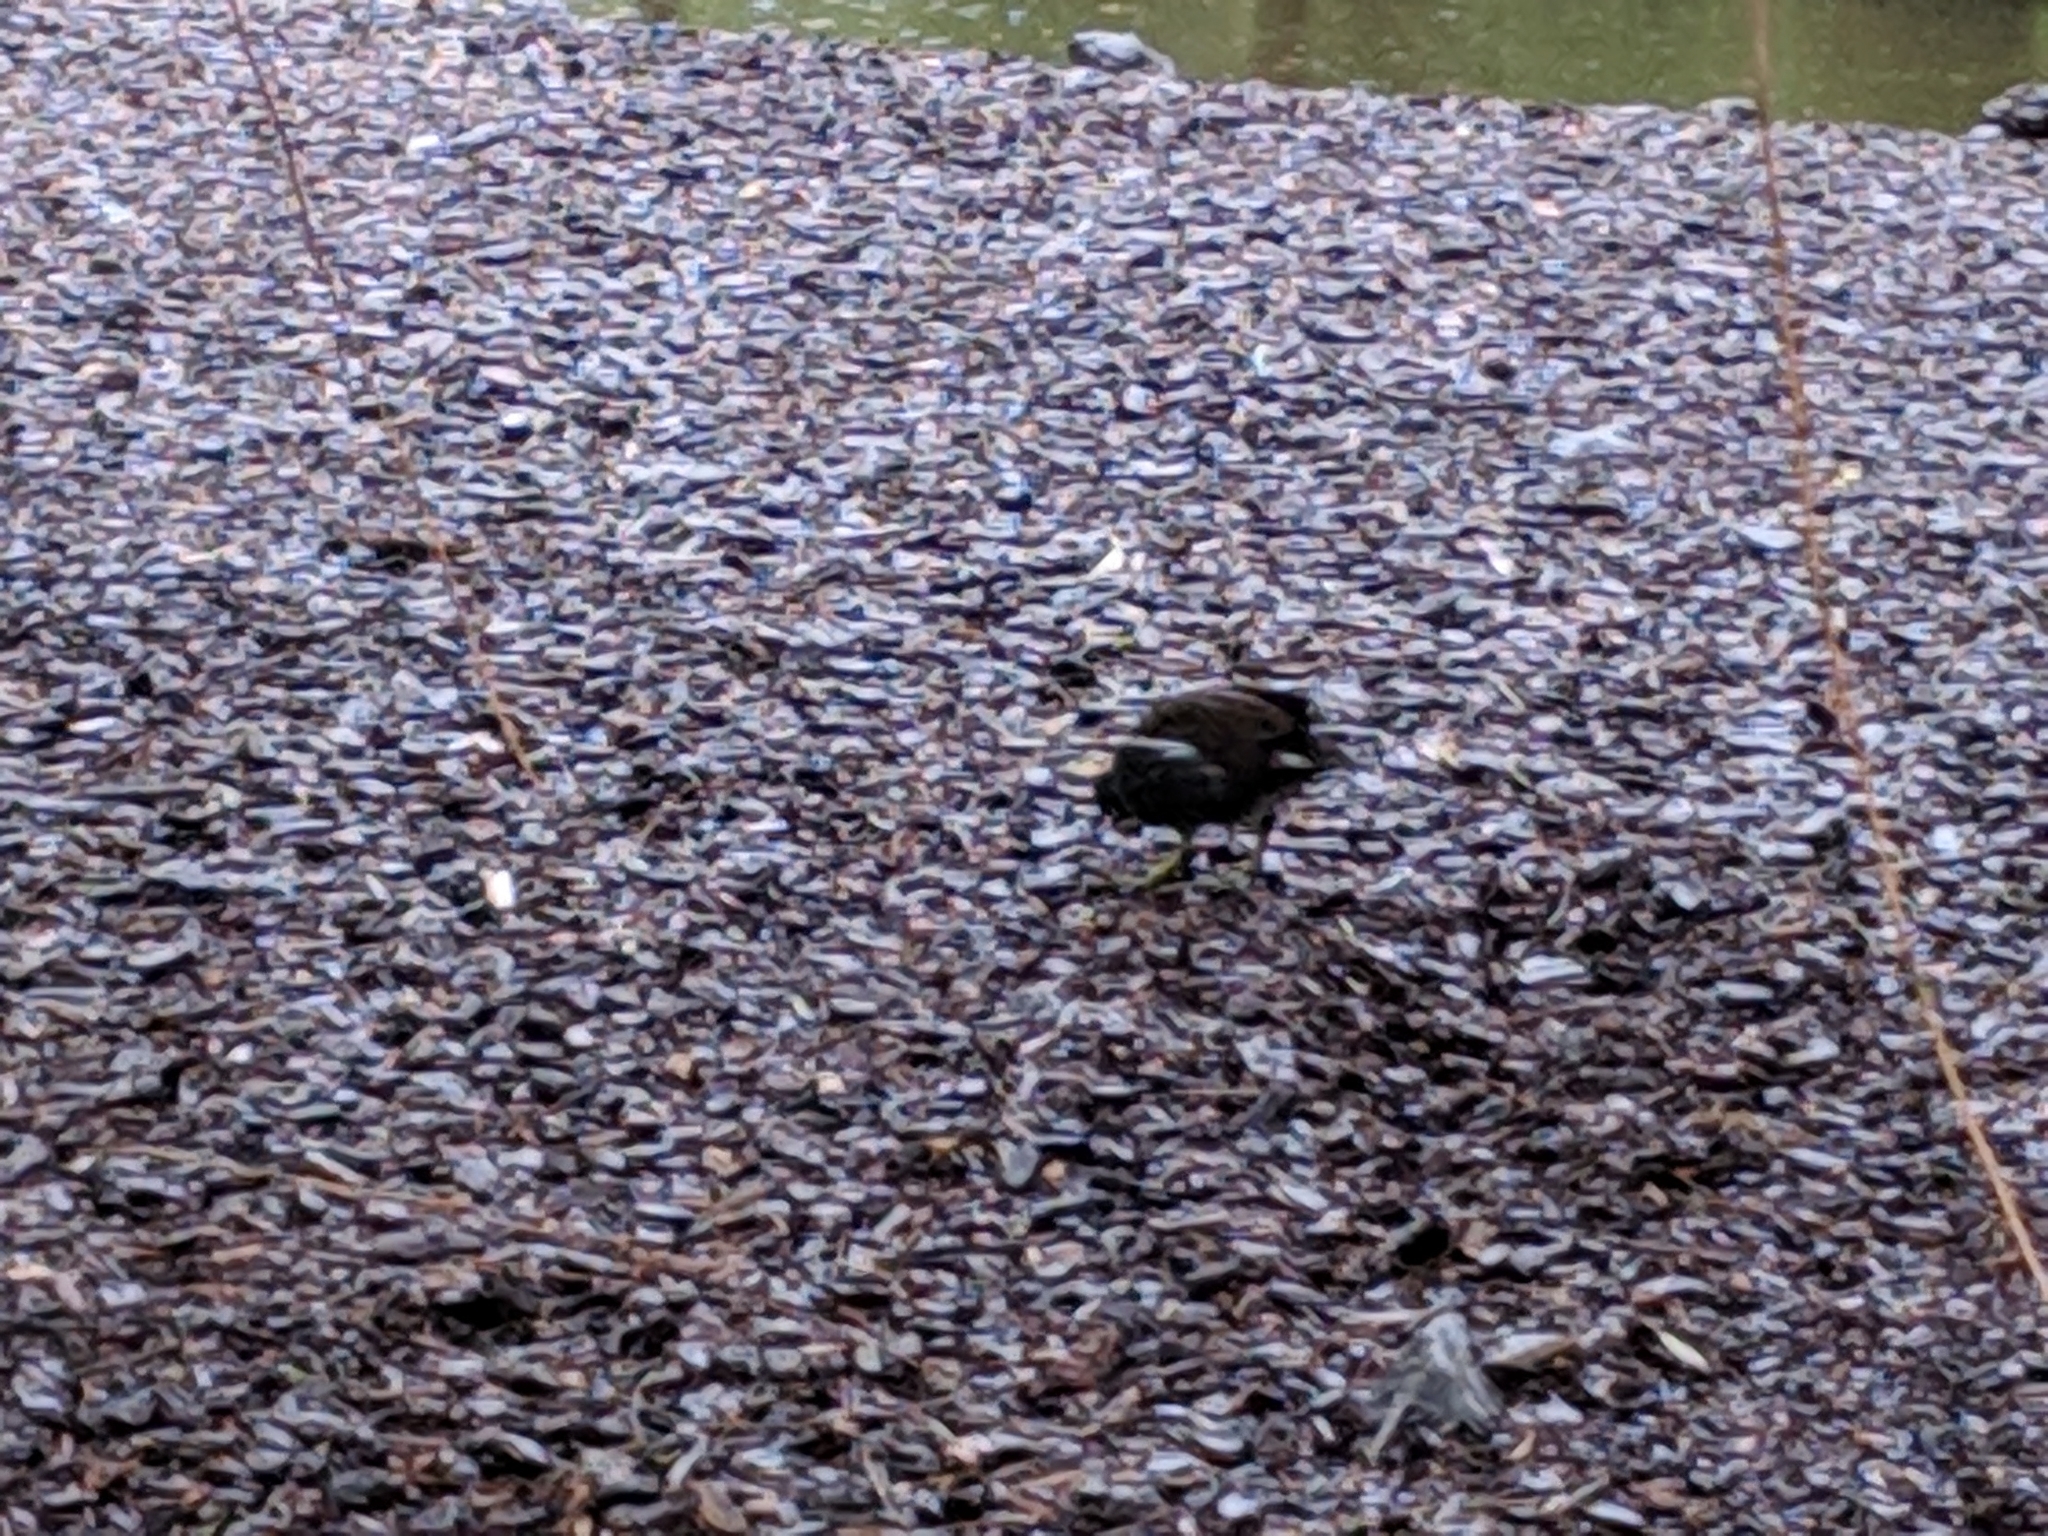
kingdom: Animalia
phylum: Chordata
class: Aves
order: Gruiformes
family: Rallidae
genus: Gallinula
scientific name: Gallinula chloropus
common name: Common moorhen
